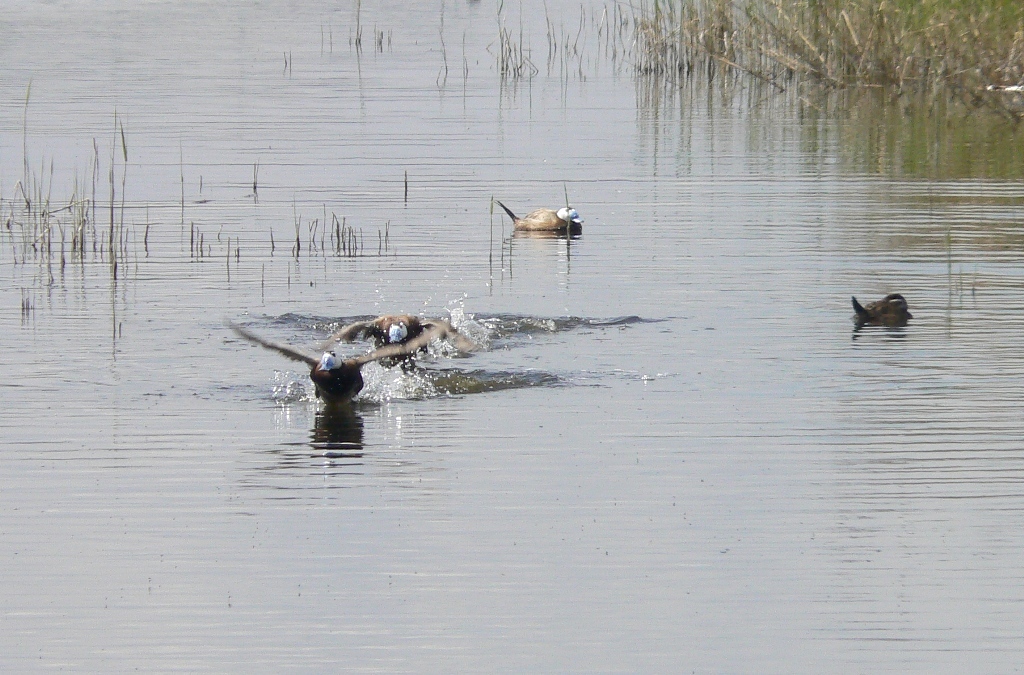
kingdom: Animalia
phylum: Chordata
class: Aves
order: Anseriformes
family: Anatidae
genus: Oxyura
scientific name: Oxyura leucocephala
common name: White-headed duck
